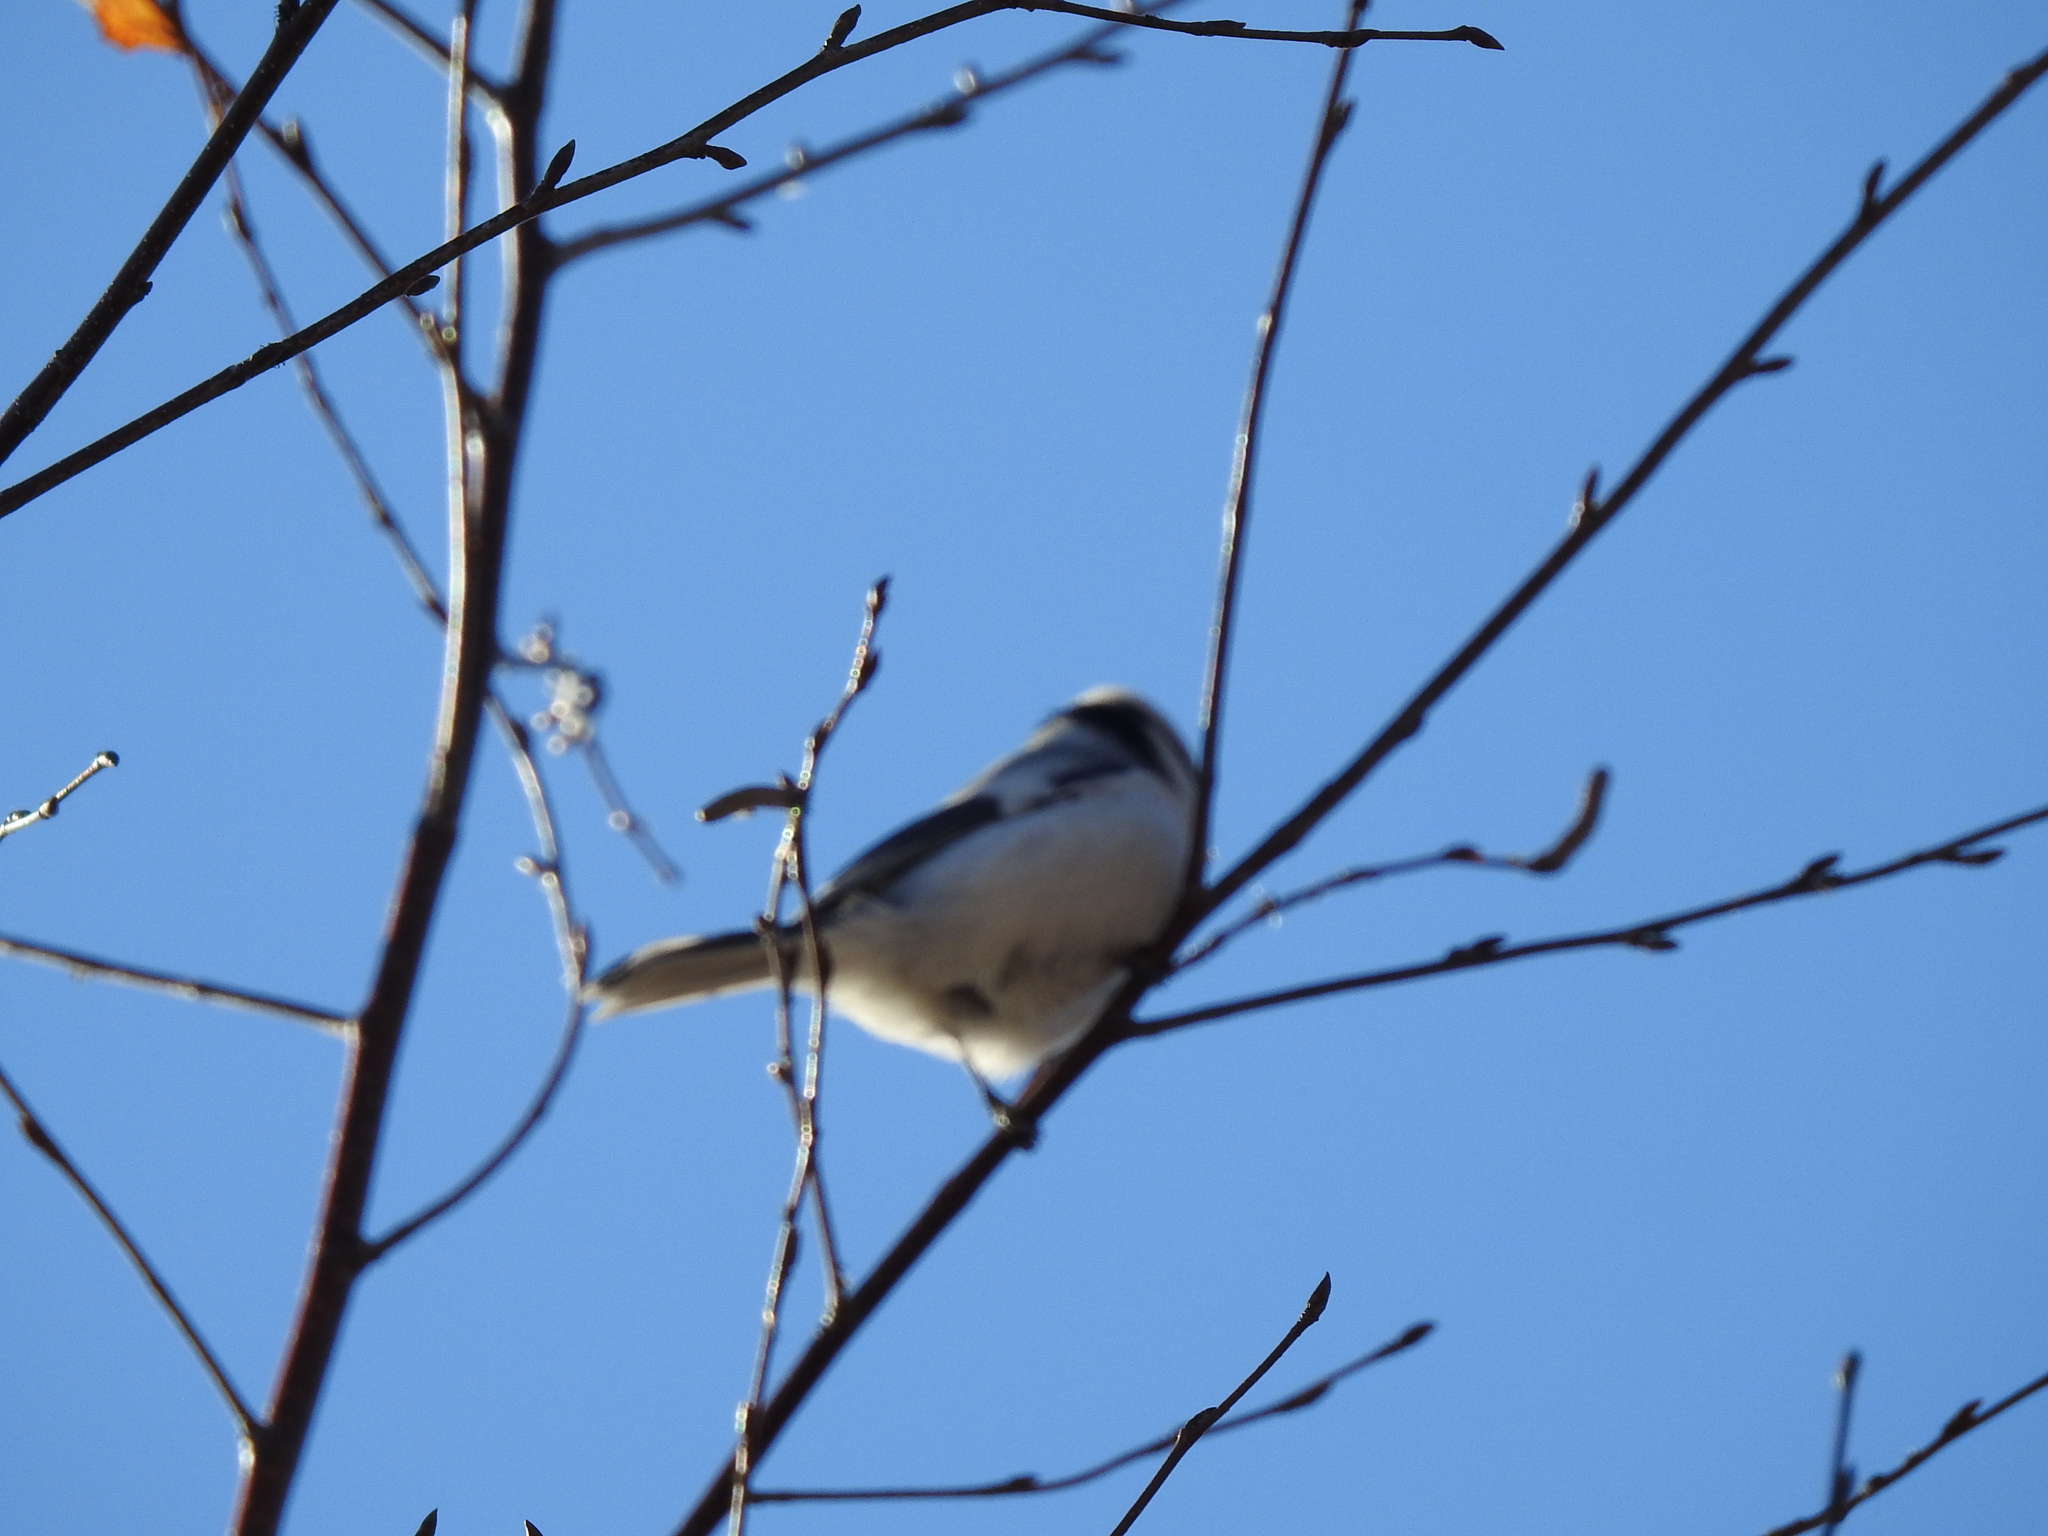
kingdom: Animalia
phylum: Chordata
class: Aves
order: Passeriformes
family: Paridae
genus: Cyanistes
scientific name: Cyanistes cyanus
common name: Azure tit
